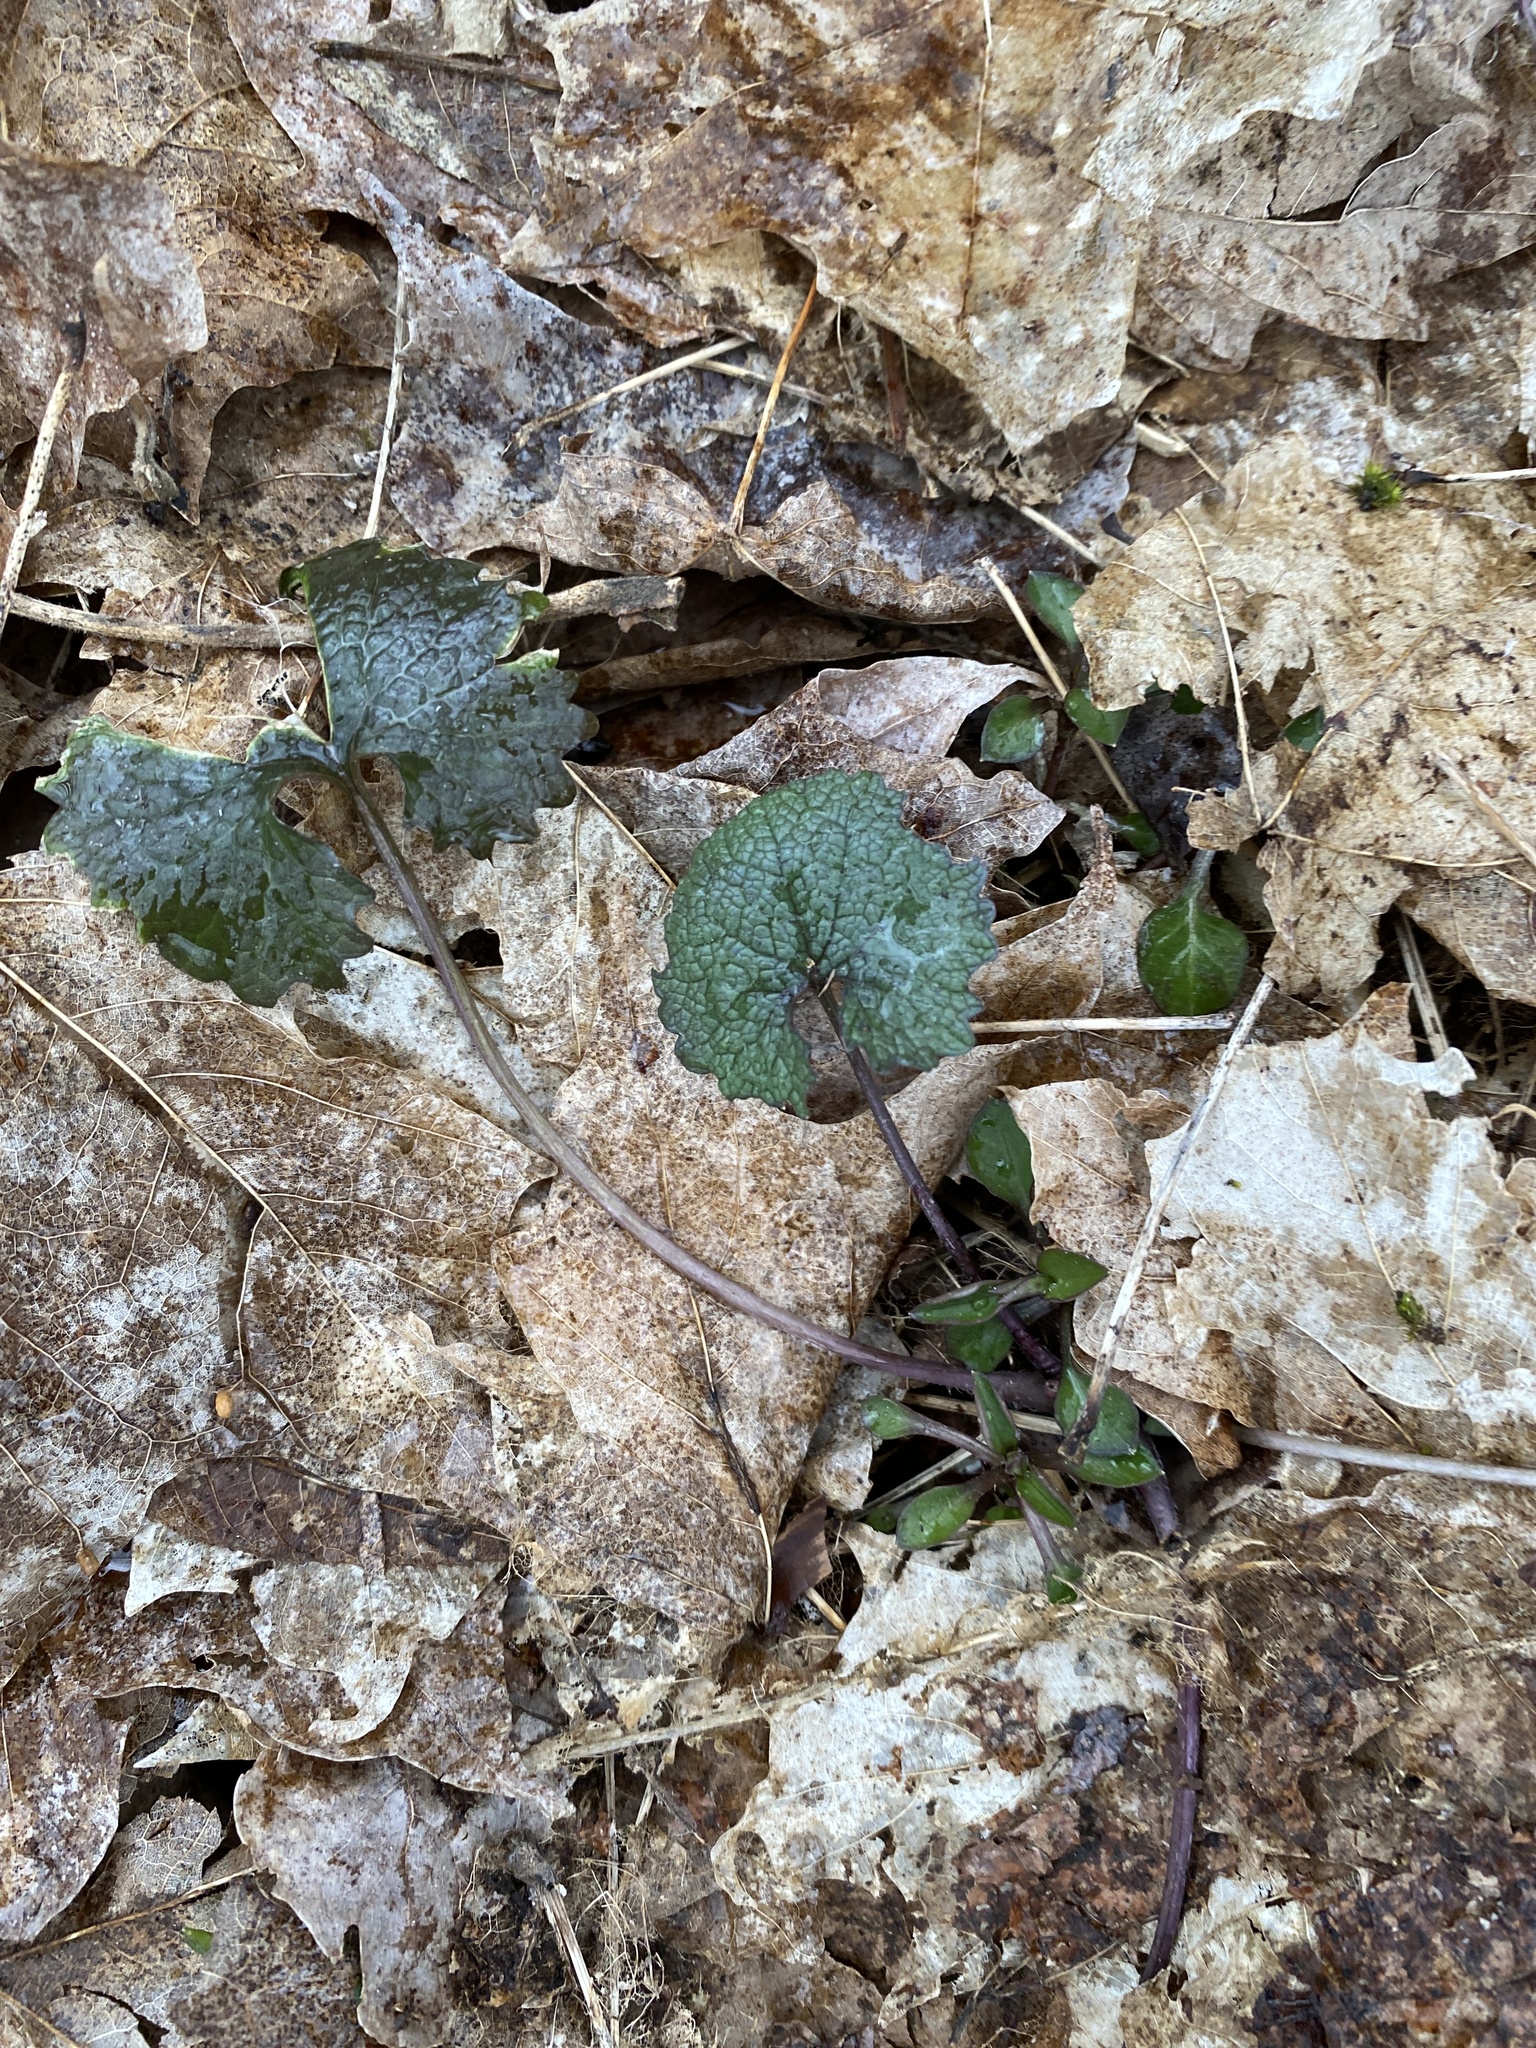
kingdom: Plantae
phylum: Tracheophyta
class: Magnoliopsida
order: Brassicales
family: Brassicaceae
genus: Alliaria
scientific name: Alliaria petiolata
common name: Garlic mustard
